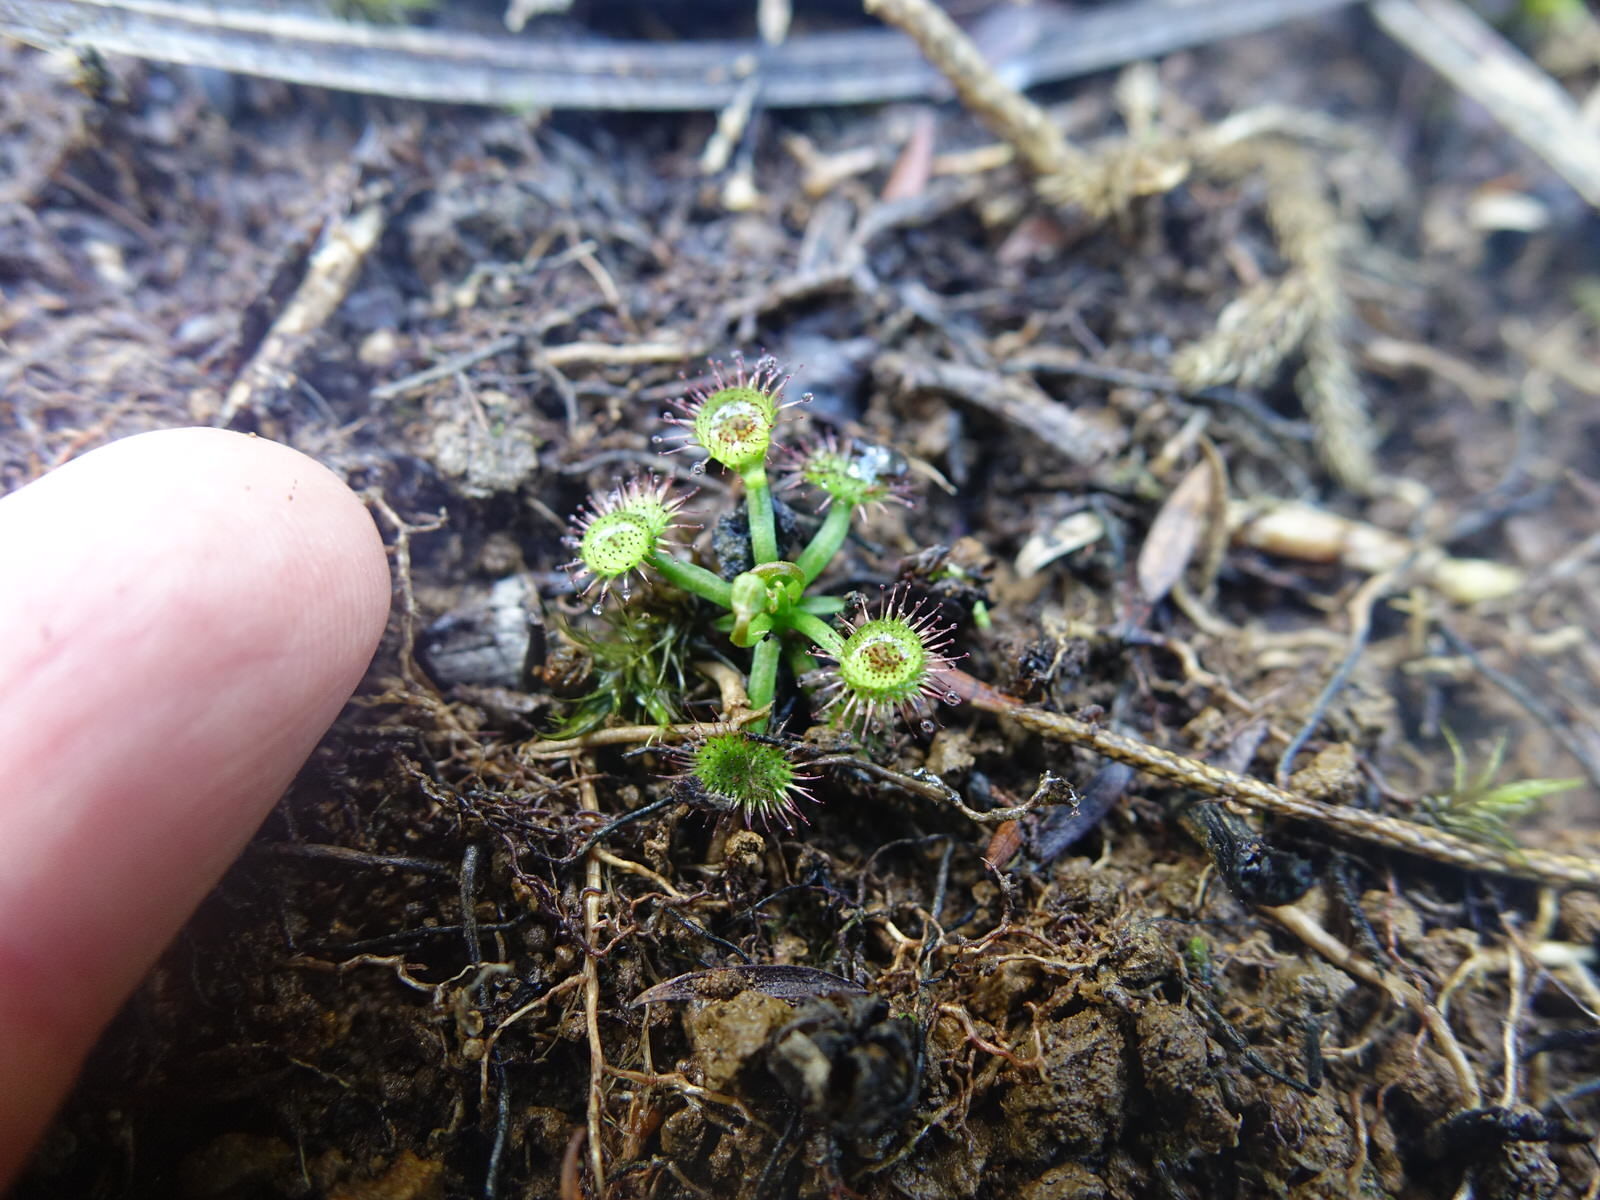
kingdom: Plantae
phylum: Tracheophyta
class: Magnoliopsida
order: Caryophyllales
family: Droseraceae
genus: Drosera
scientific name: Drosera peltata
